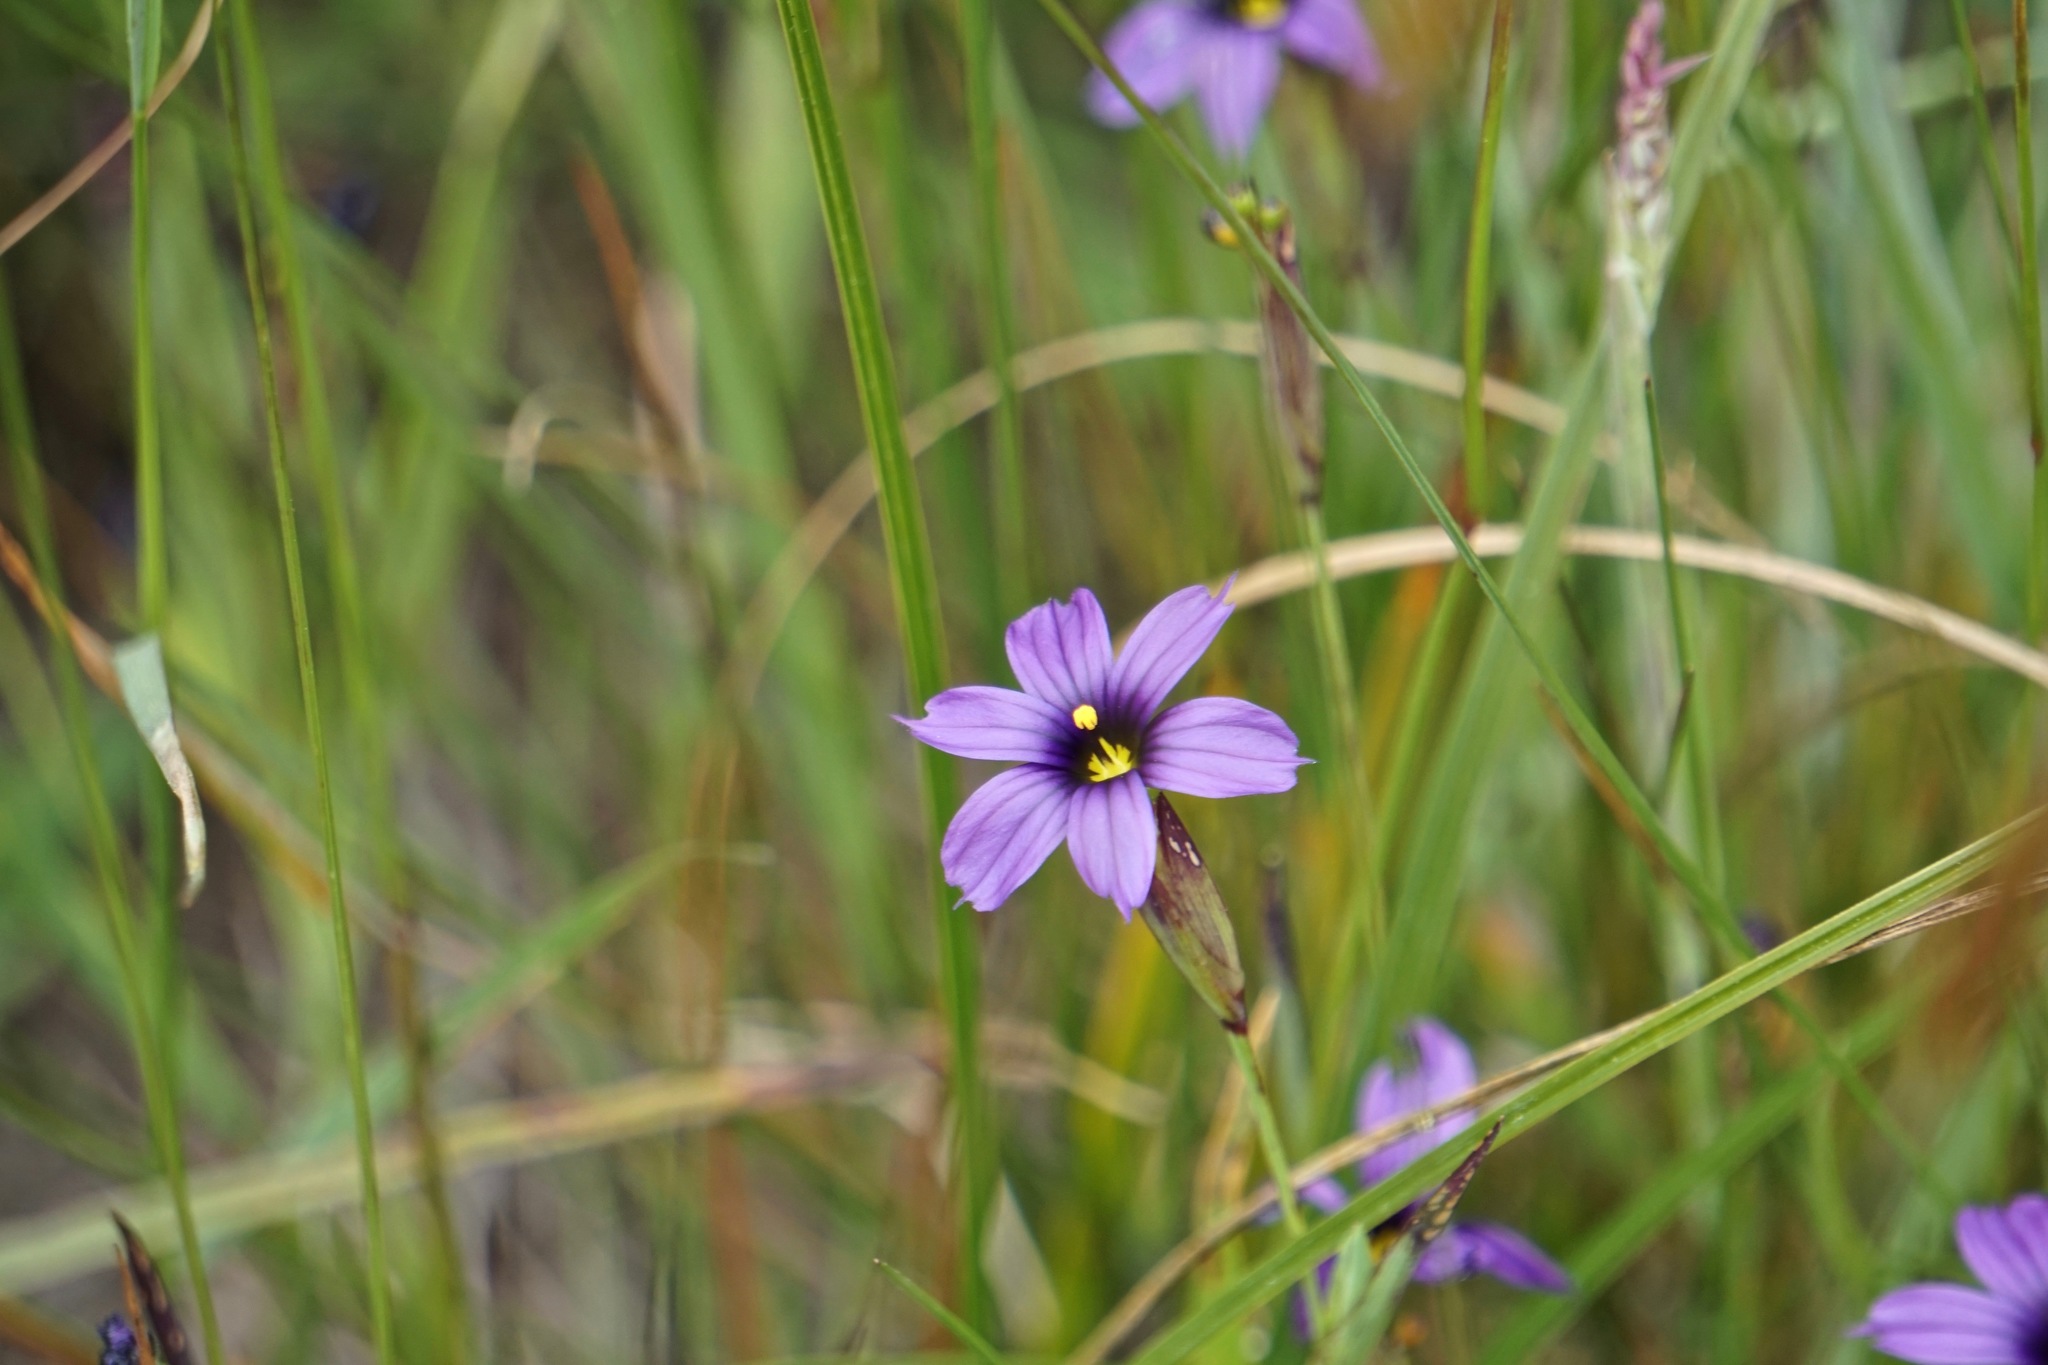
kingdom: Plantae
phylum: Tracheophyta
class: Liliopsida
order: Asparagales
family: Iridaceae
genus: Sisyrinchium
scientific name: Sisyrinchium bellum
